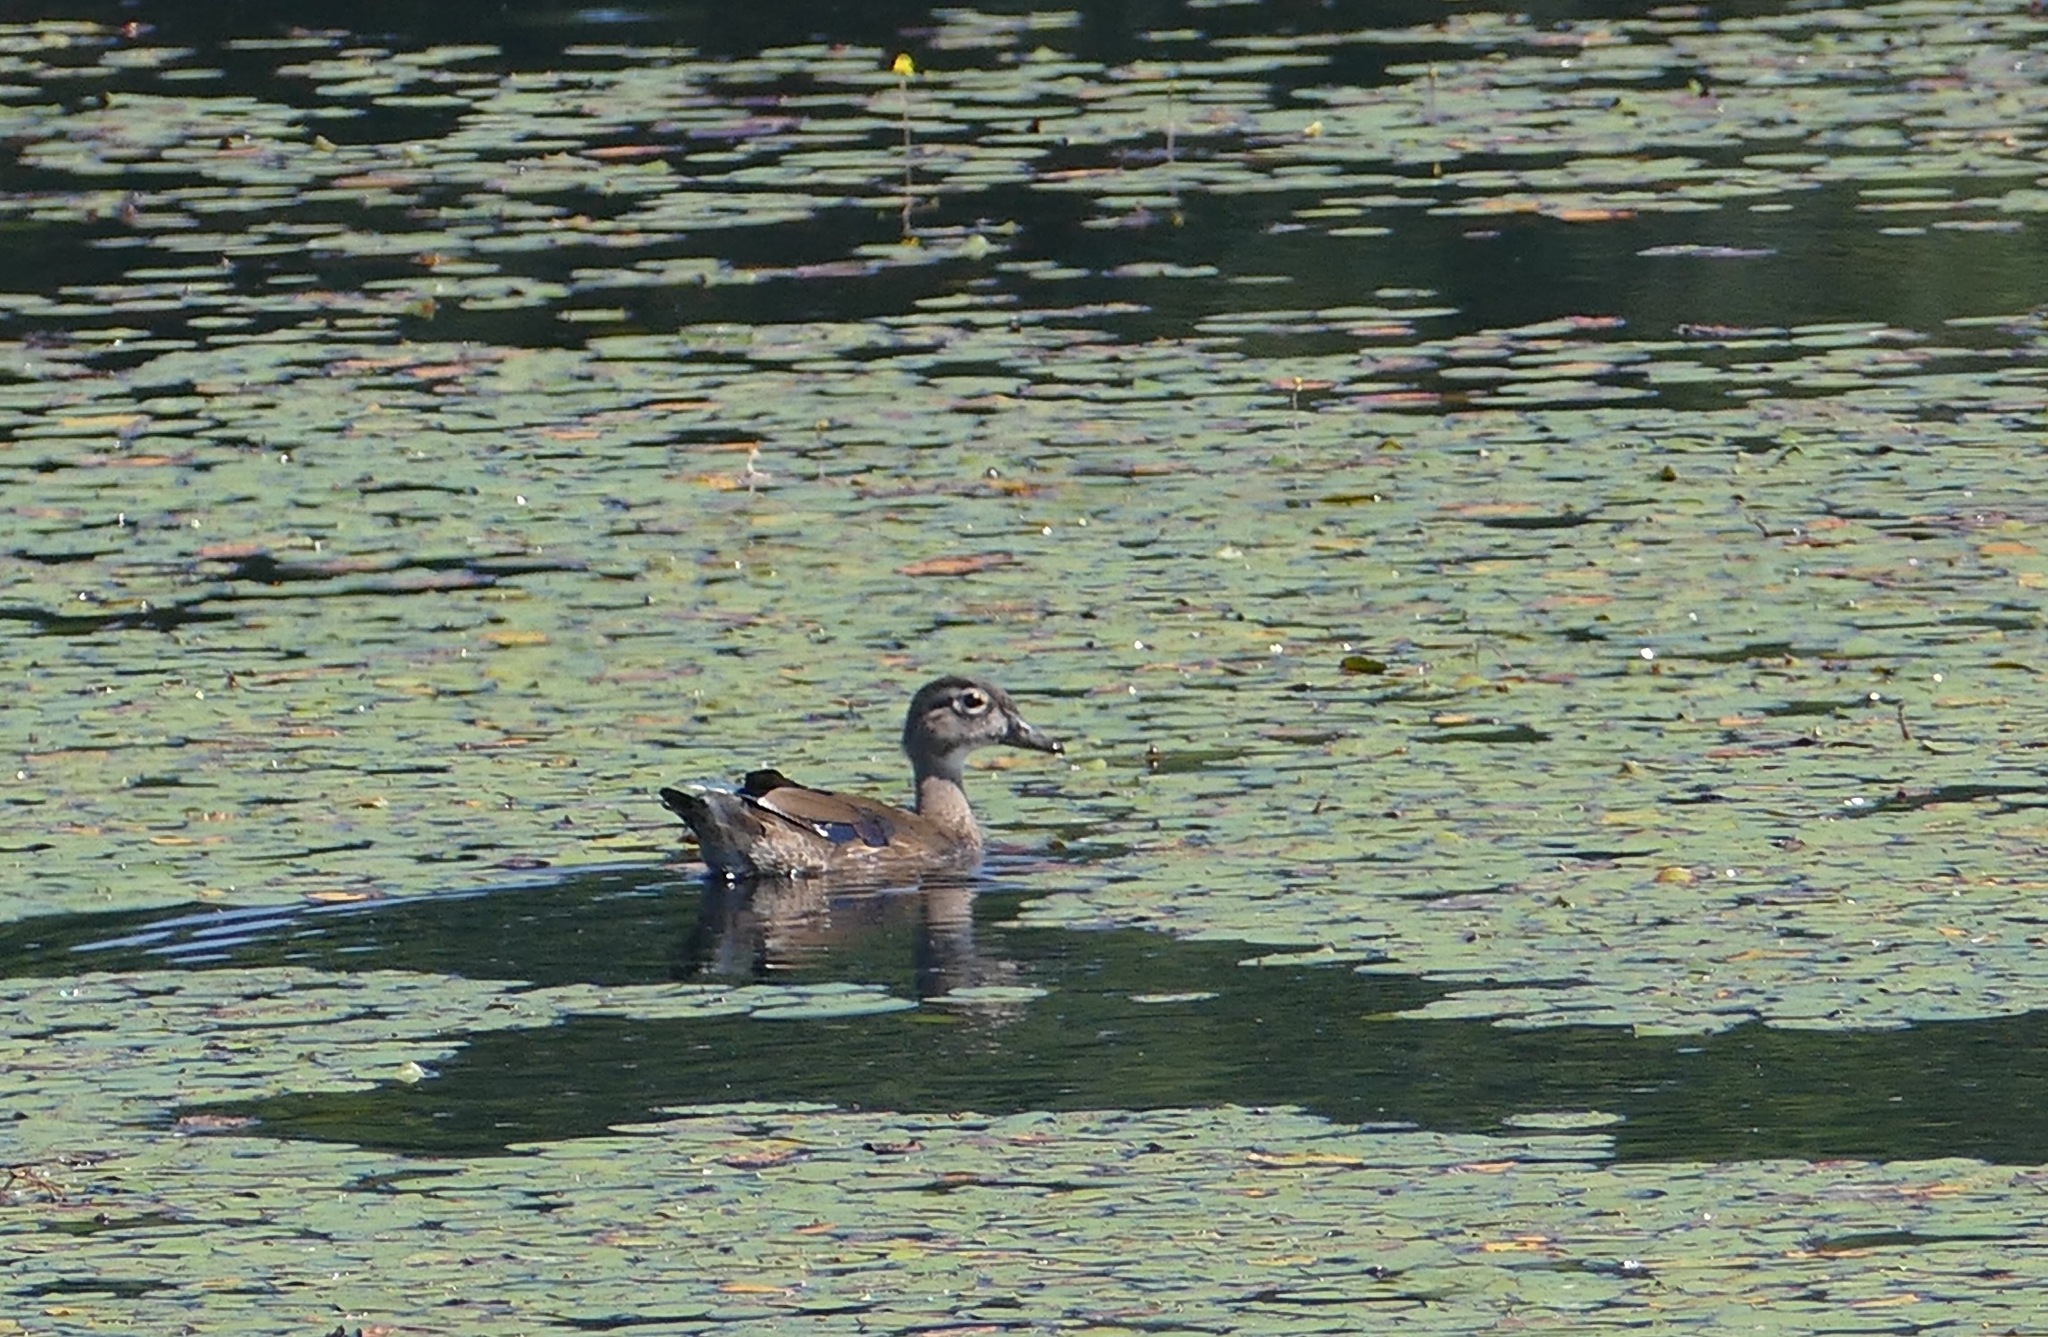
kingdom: Animalia
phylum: Chordata
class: Aves
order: Anseriformes
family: Anatidae
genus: Aix
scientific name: Aix sponsa
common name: Wood duck
